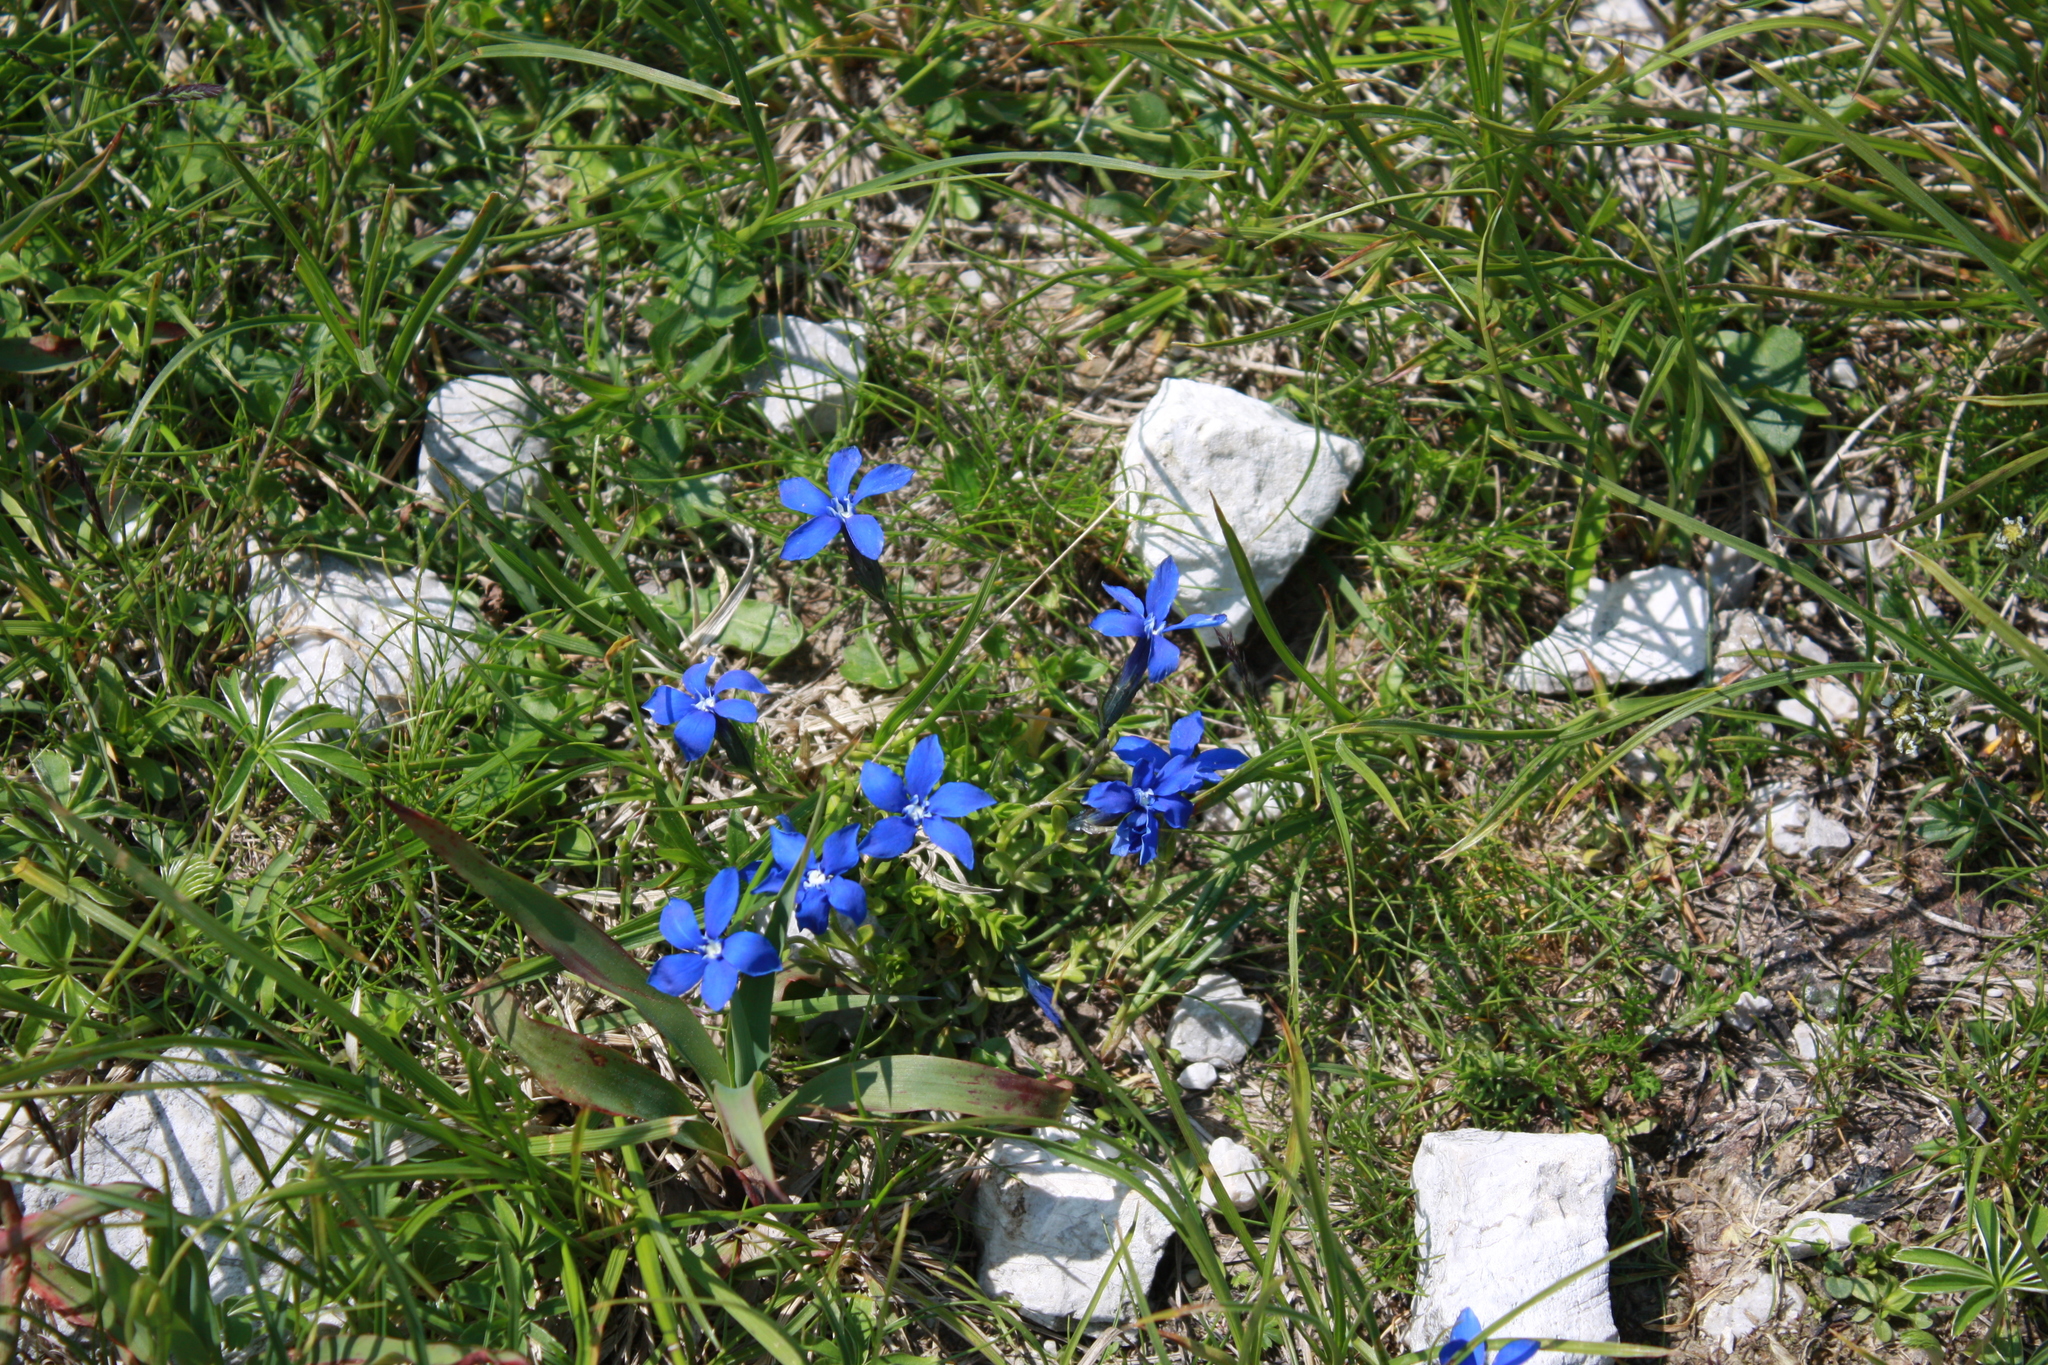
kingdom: Plantae
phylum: Tracheophyta
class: Magnoliopsida
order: Gentianales
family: Gentianaceae
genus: Gentiana
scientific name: Gentiana bavarica
